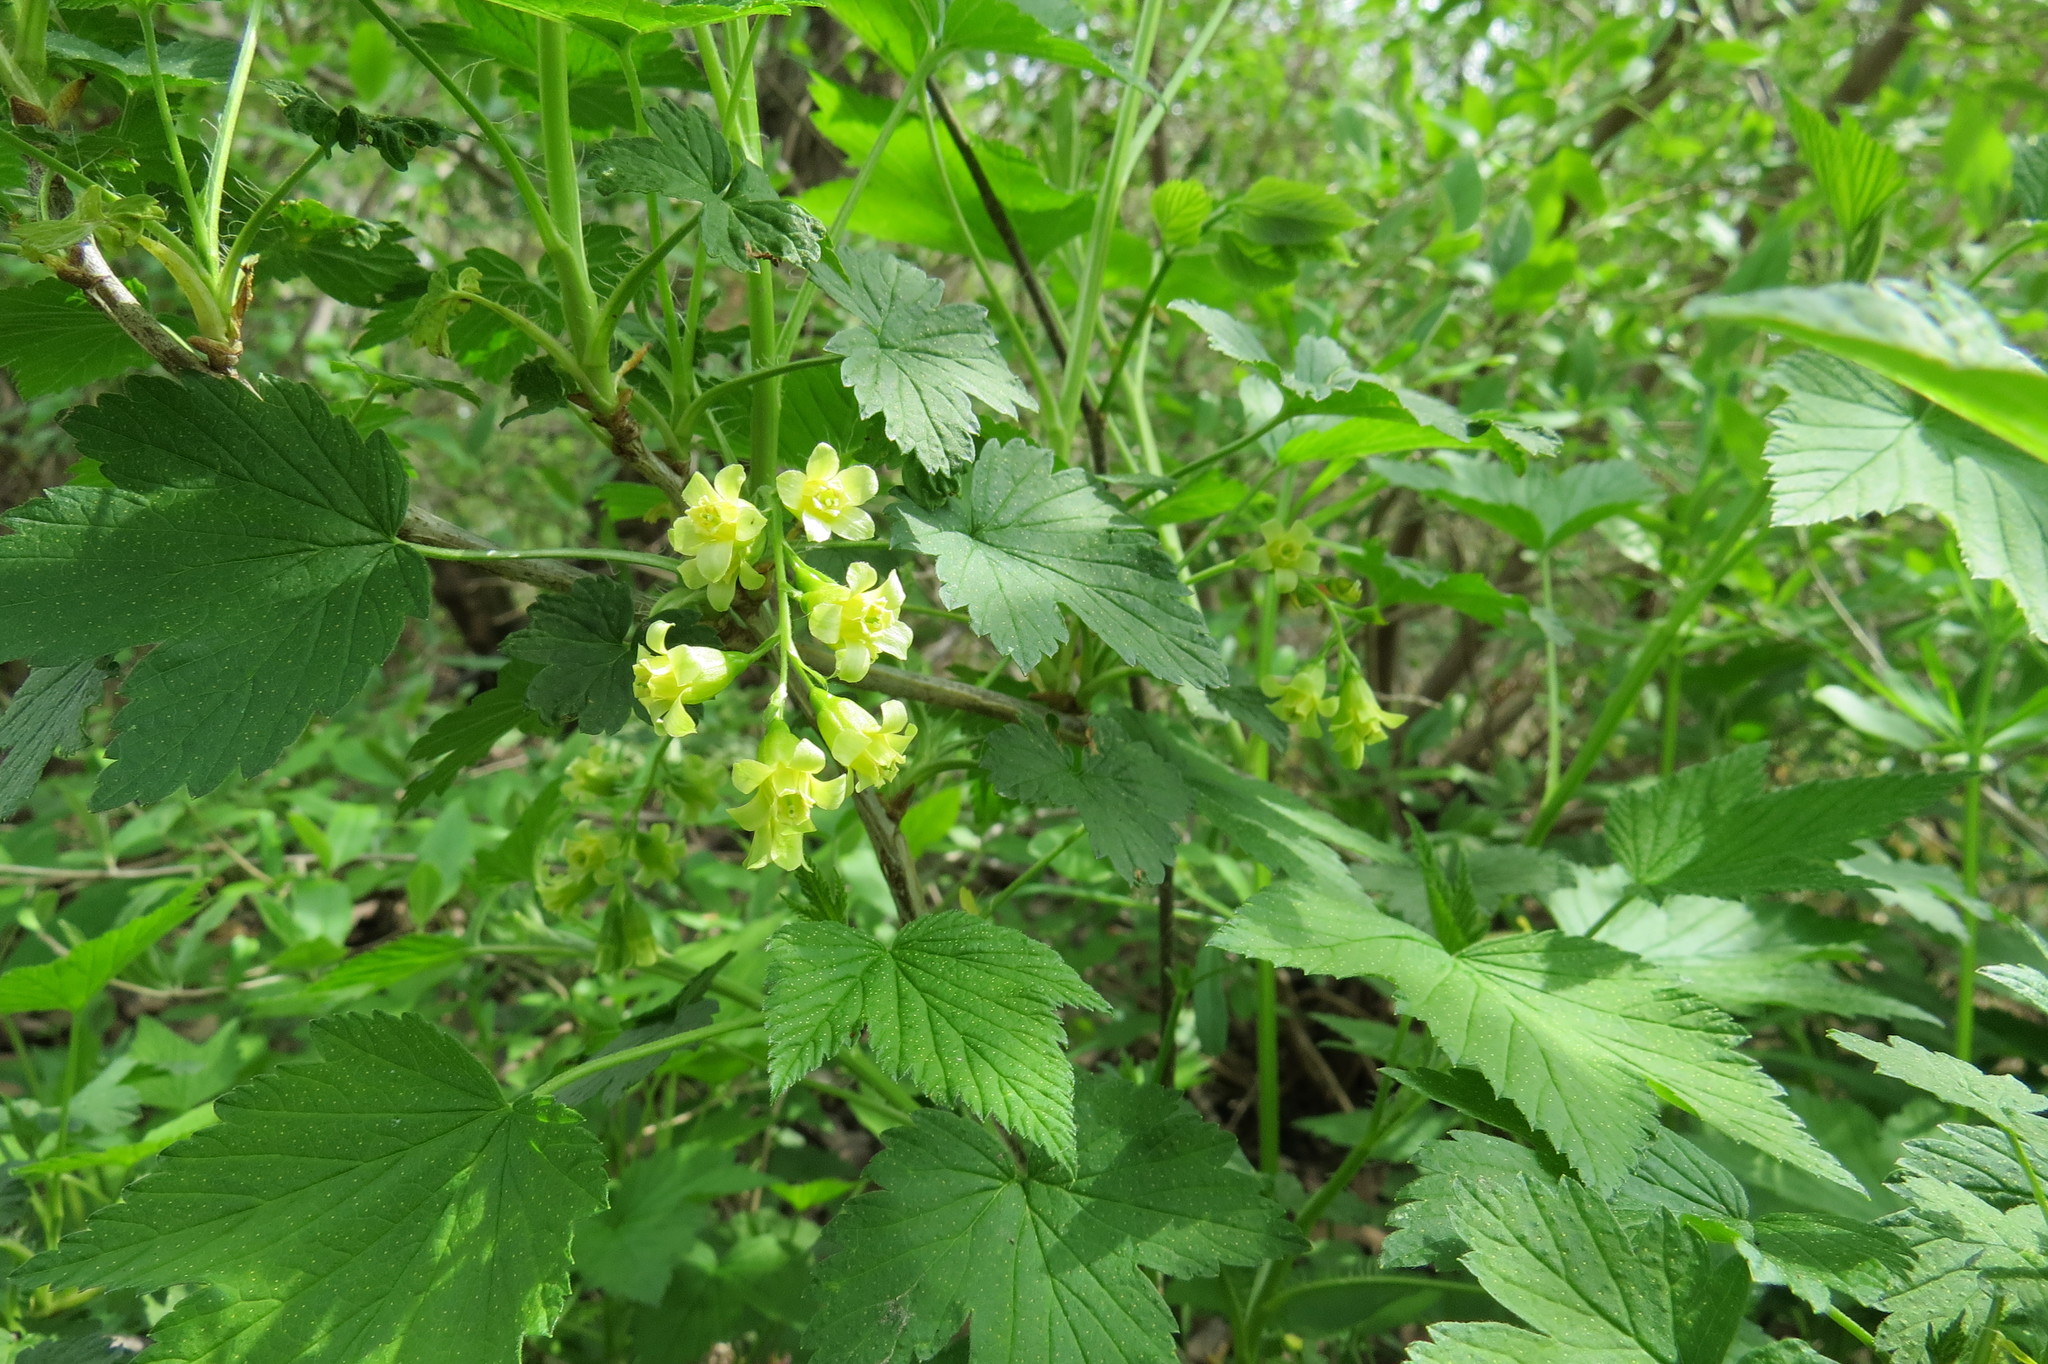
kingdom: Plantae
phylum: Tracheophyta
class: Magnoliopsida
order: Saxifragales
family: Grossulariaceae
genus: Ribes
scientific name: Ribes americanum
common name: American black currant
